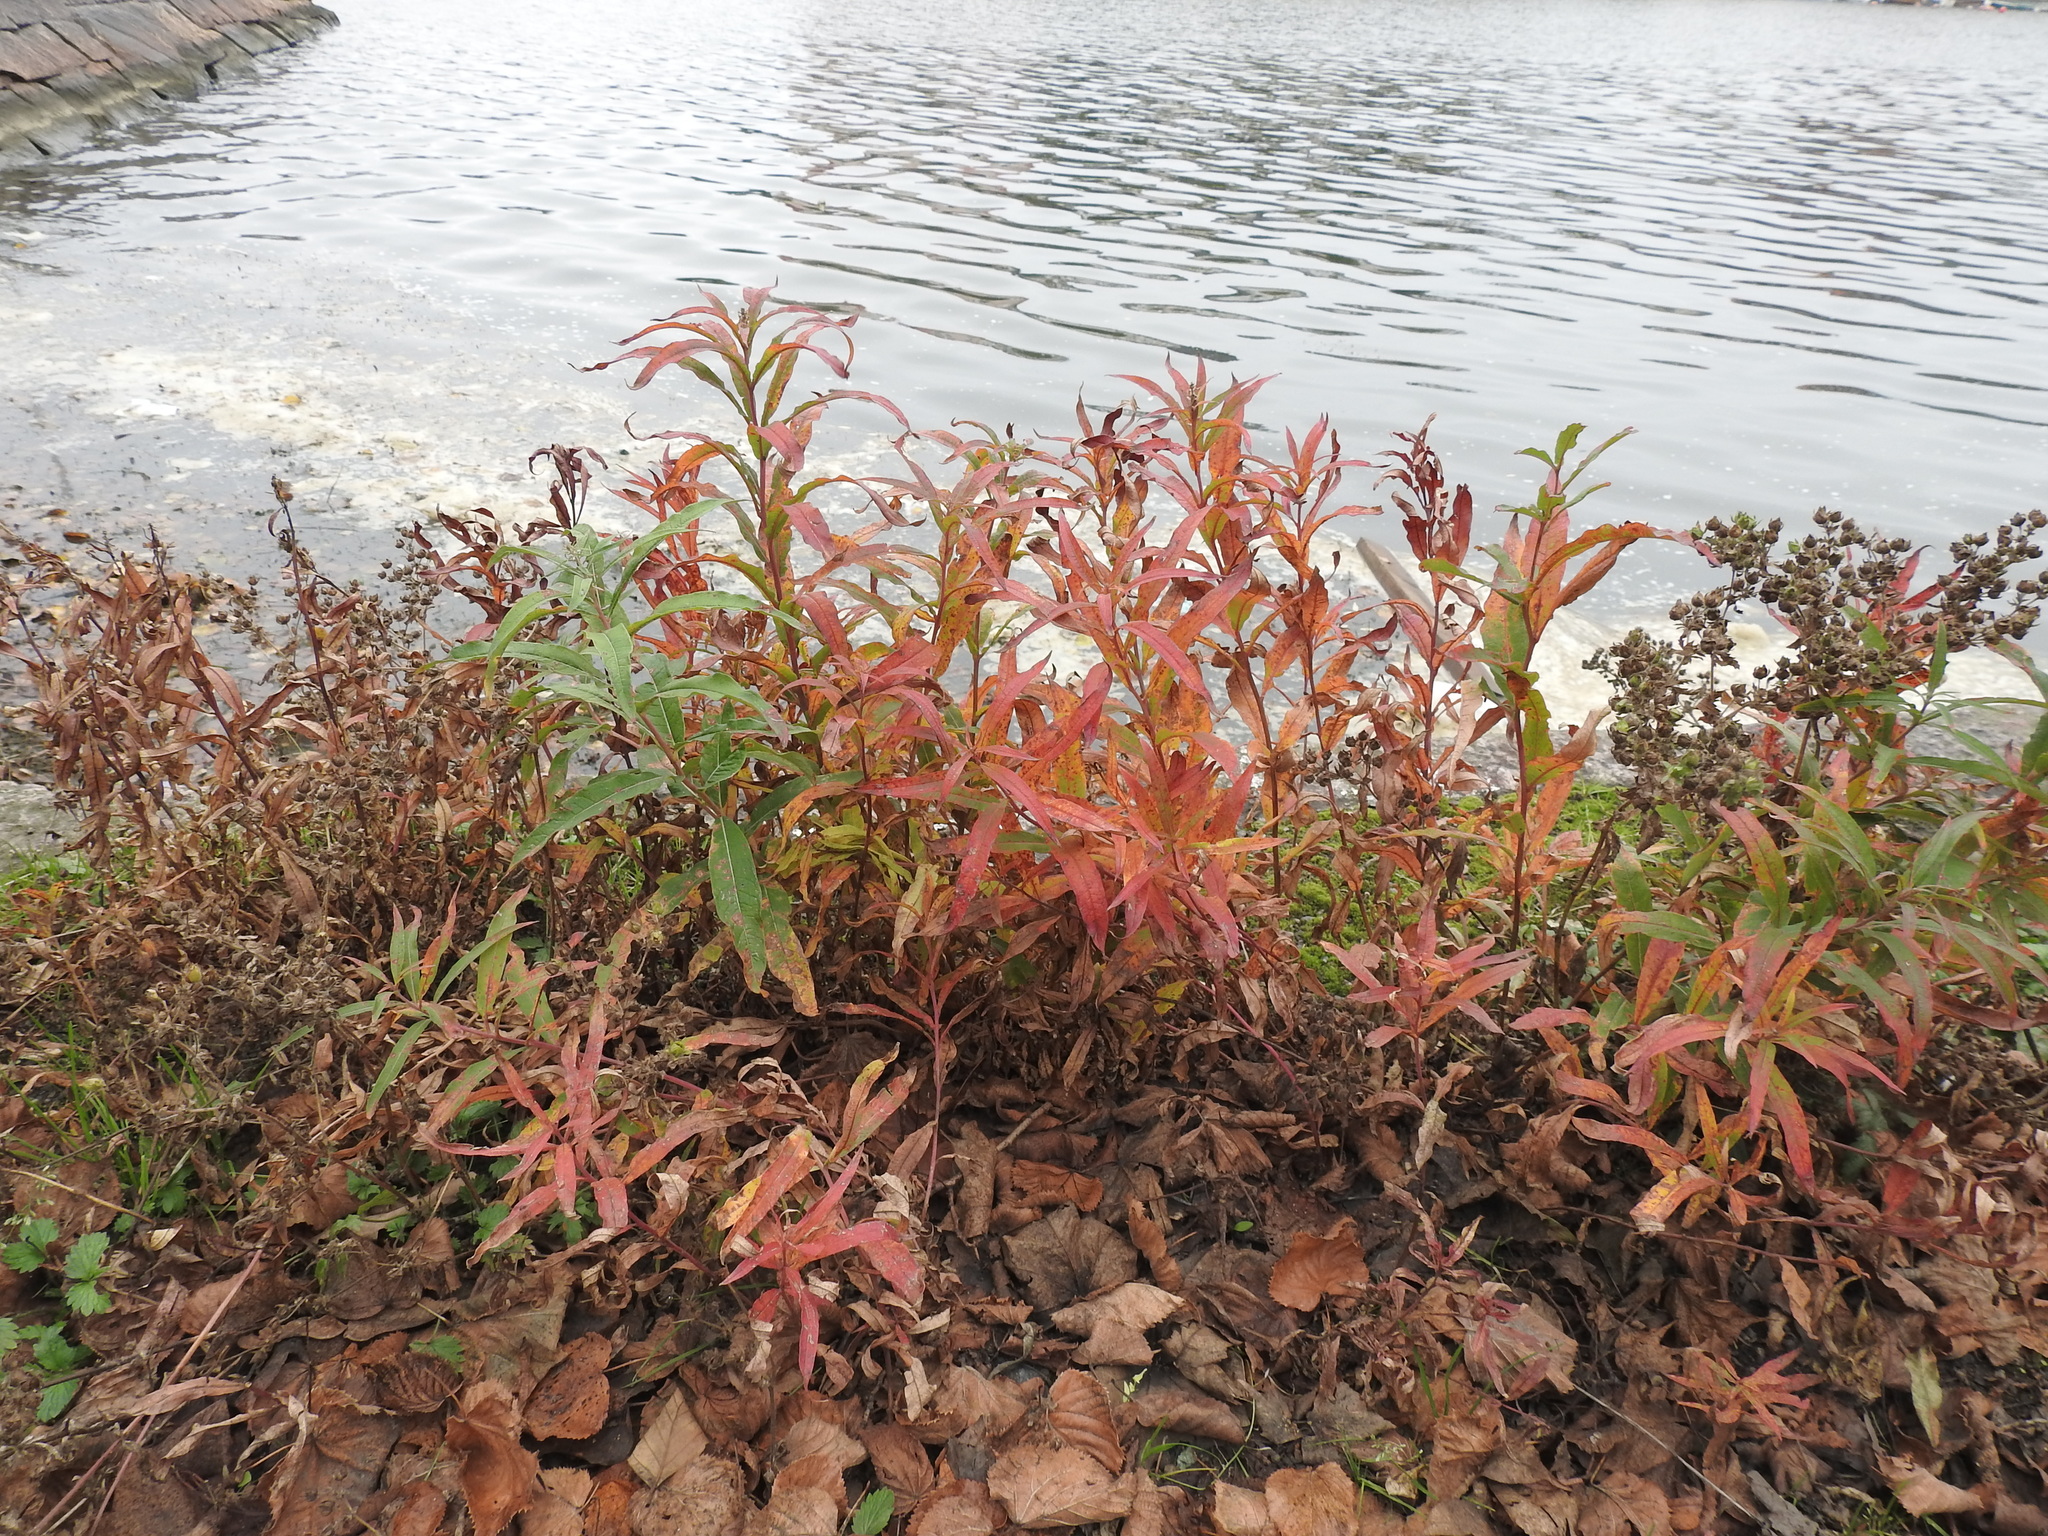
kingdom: Plantae
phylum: Tracheophyta
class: Magnoliopsida
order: Myrtales
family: Onagraceae
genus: Chamaenerion
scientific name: Chamaenerion angustifolium
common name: Fireweed
